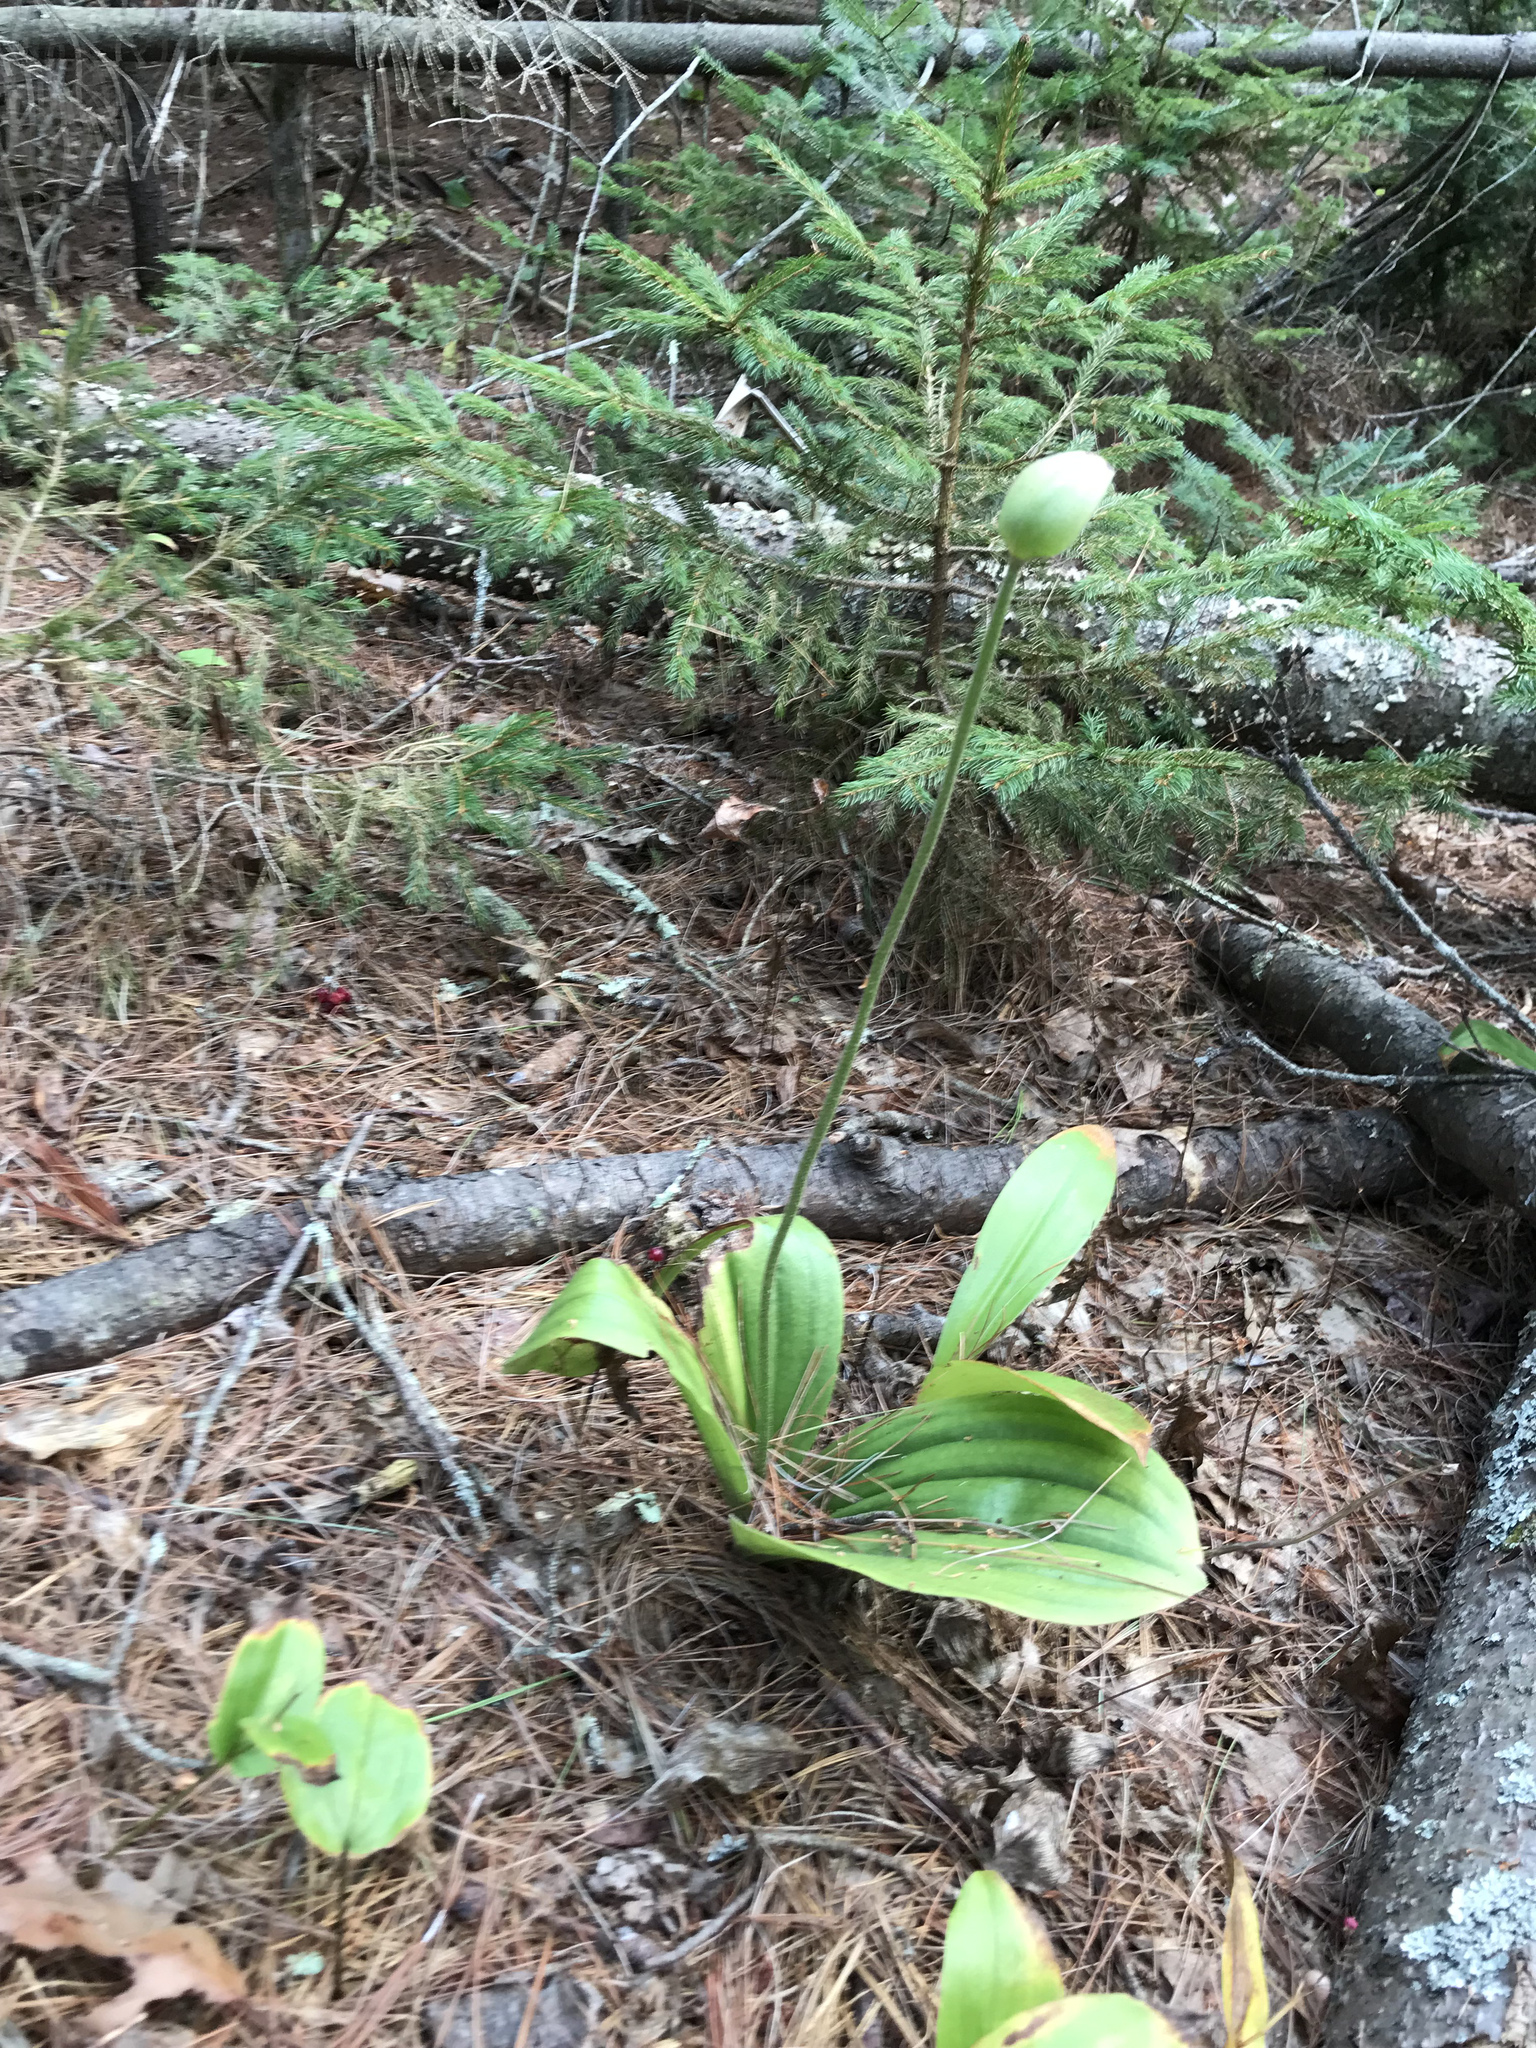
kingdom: Plantae
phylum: Tracheophyta
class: Liliopsida
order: Asparagales
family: Orchidaceae
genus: Cypripedium
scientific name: Cypripedium acaule
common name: Pink lady's-slipper
